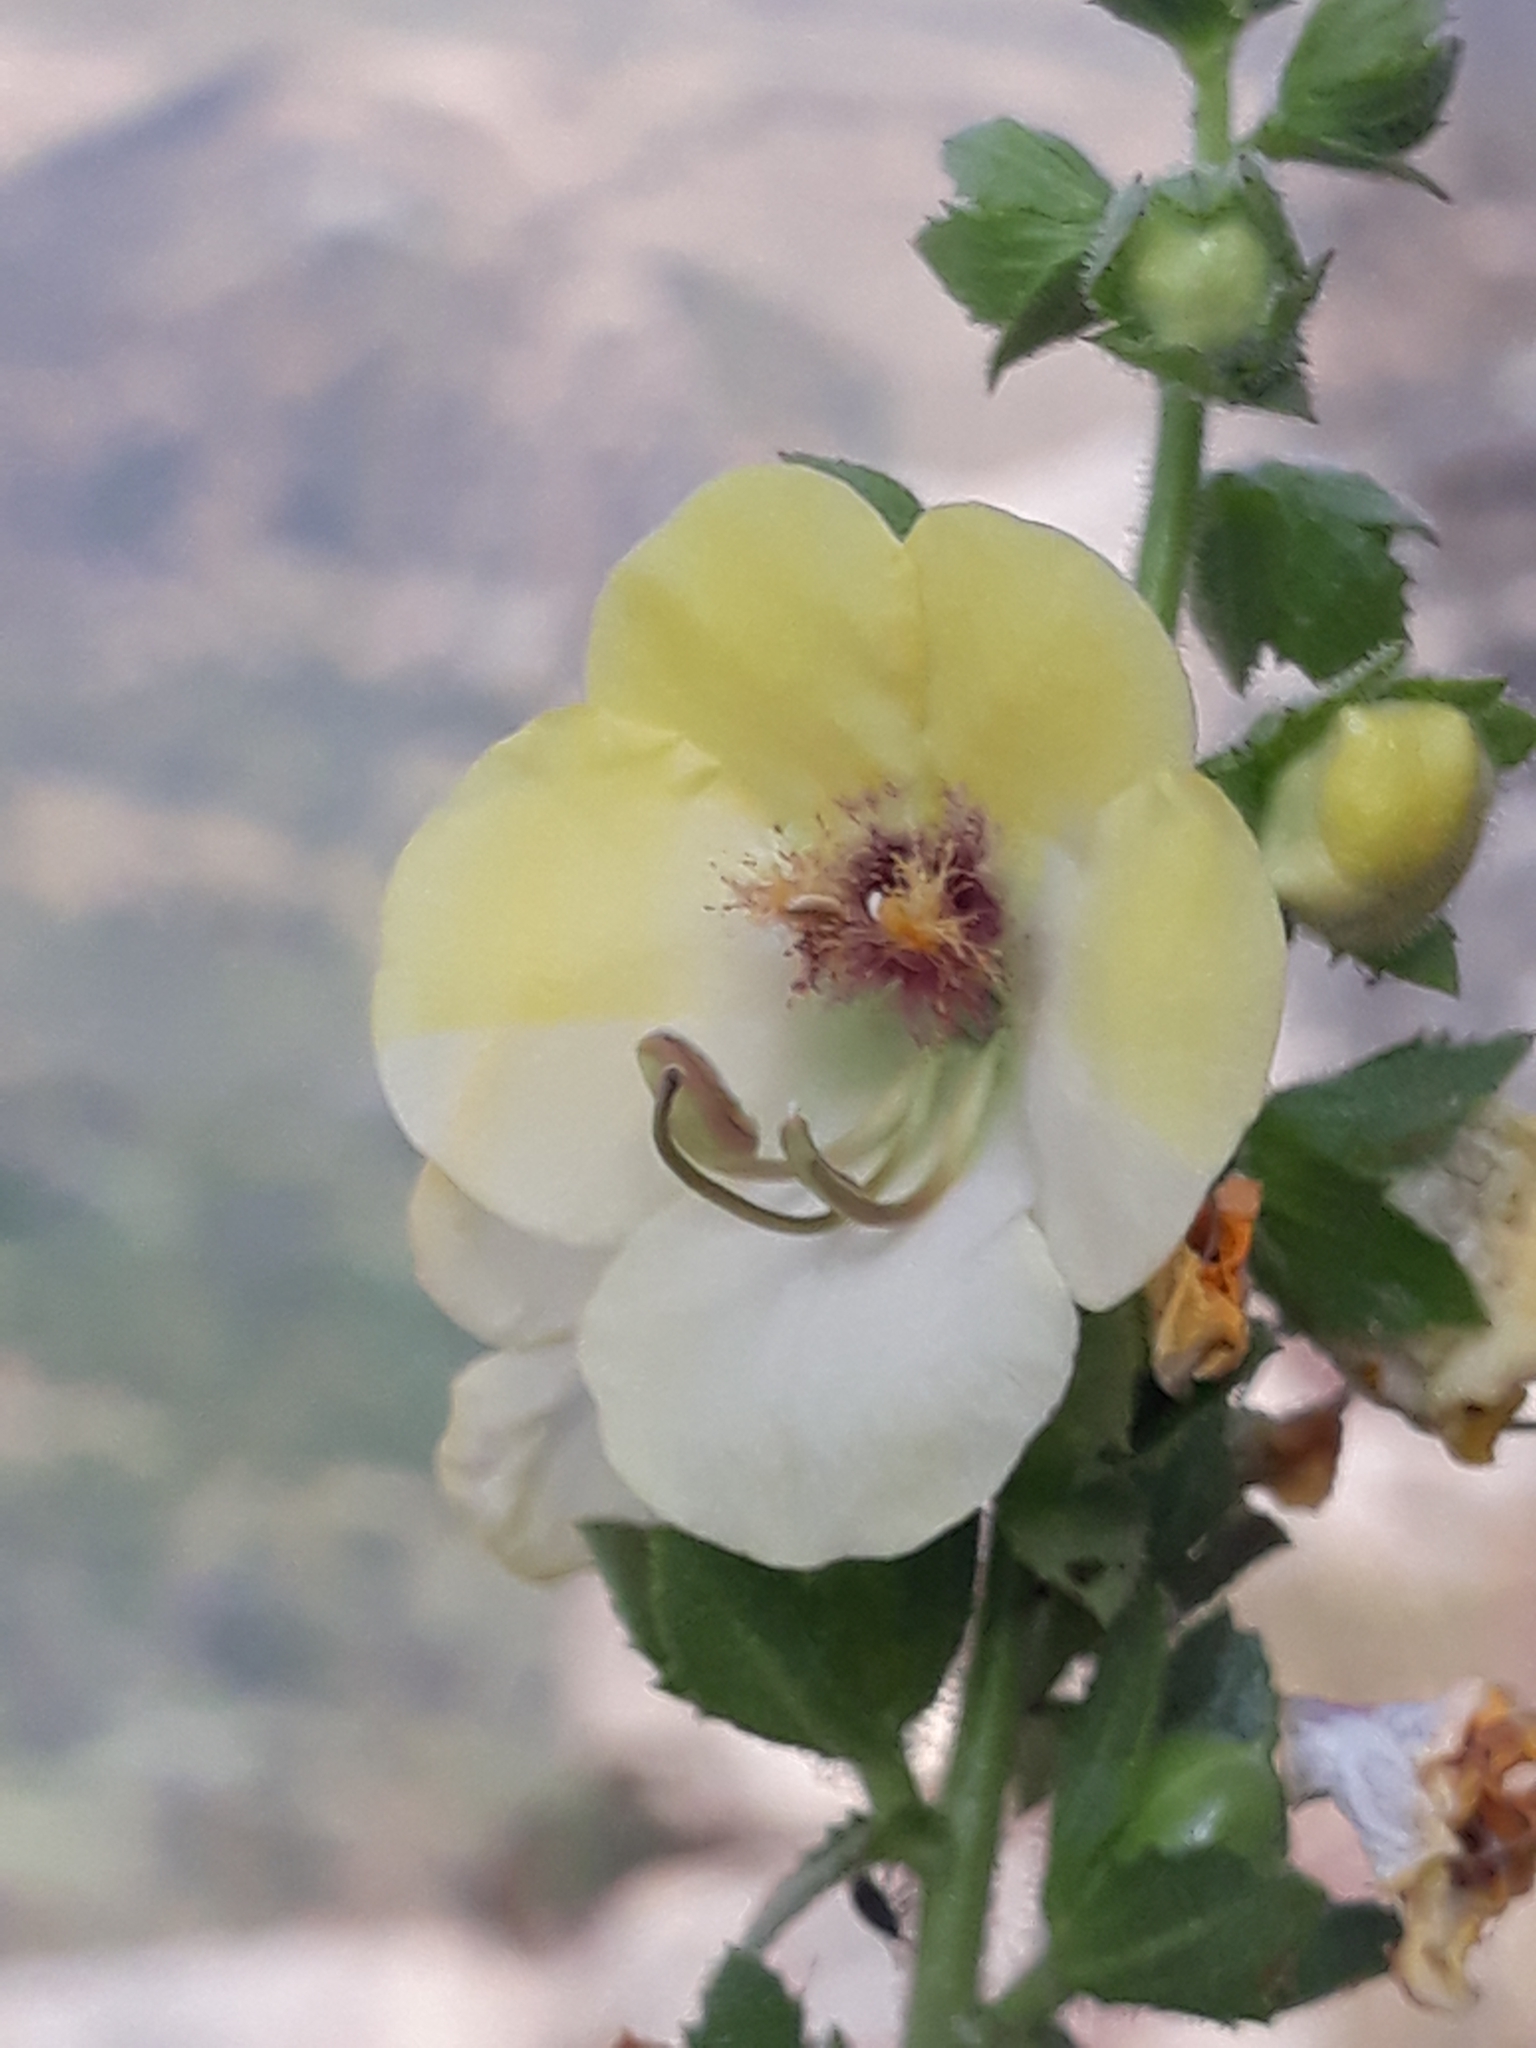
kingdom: Plantae
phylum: Tracheophyta
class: Magnoliopsida
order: Lamiales
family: Scrophulariaceae
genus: Verbascum
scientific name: Verbascum creticum
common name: Cretan mullein
